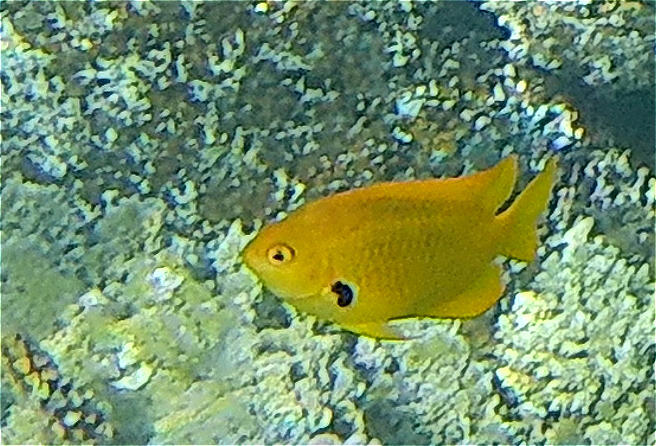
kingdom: Animalia
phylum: Chordata
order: Perciformes
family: Pomacentridae
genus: Pomacentrus
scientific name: Pomacentrus sulfureus
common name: Sulfur damsel
